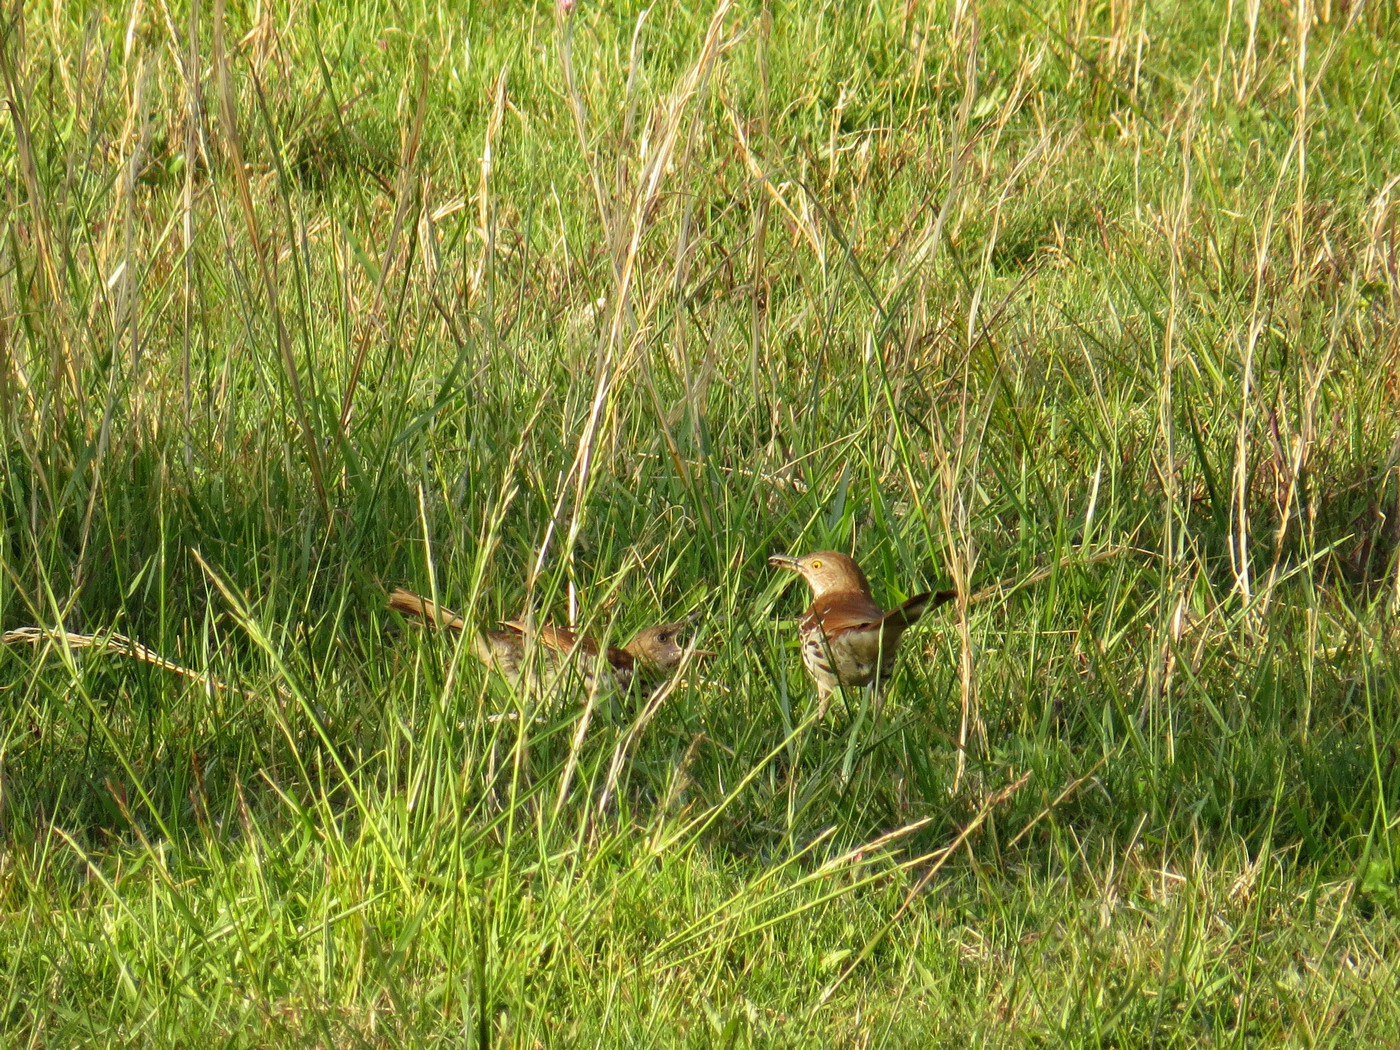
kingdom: Animalia
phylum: Chordata
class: Aves
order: Passeriformes
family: Mimidae
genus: Toxostoma
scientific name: Toxostoma rufum
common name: Brown thrasher
